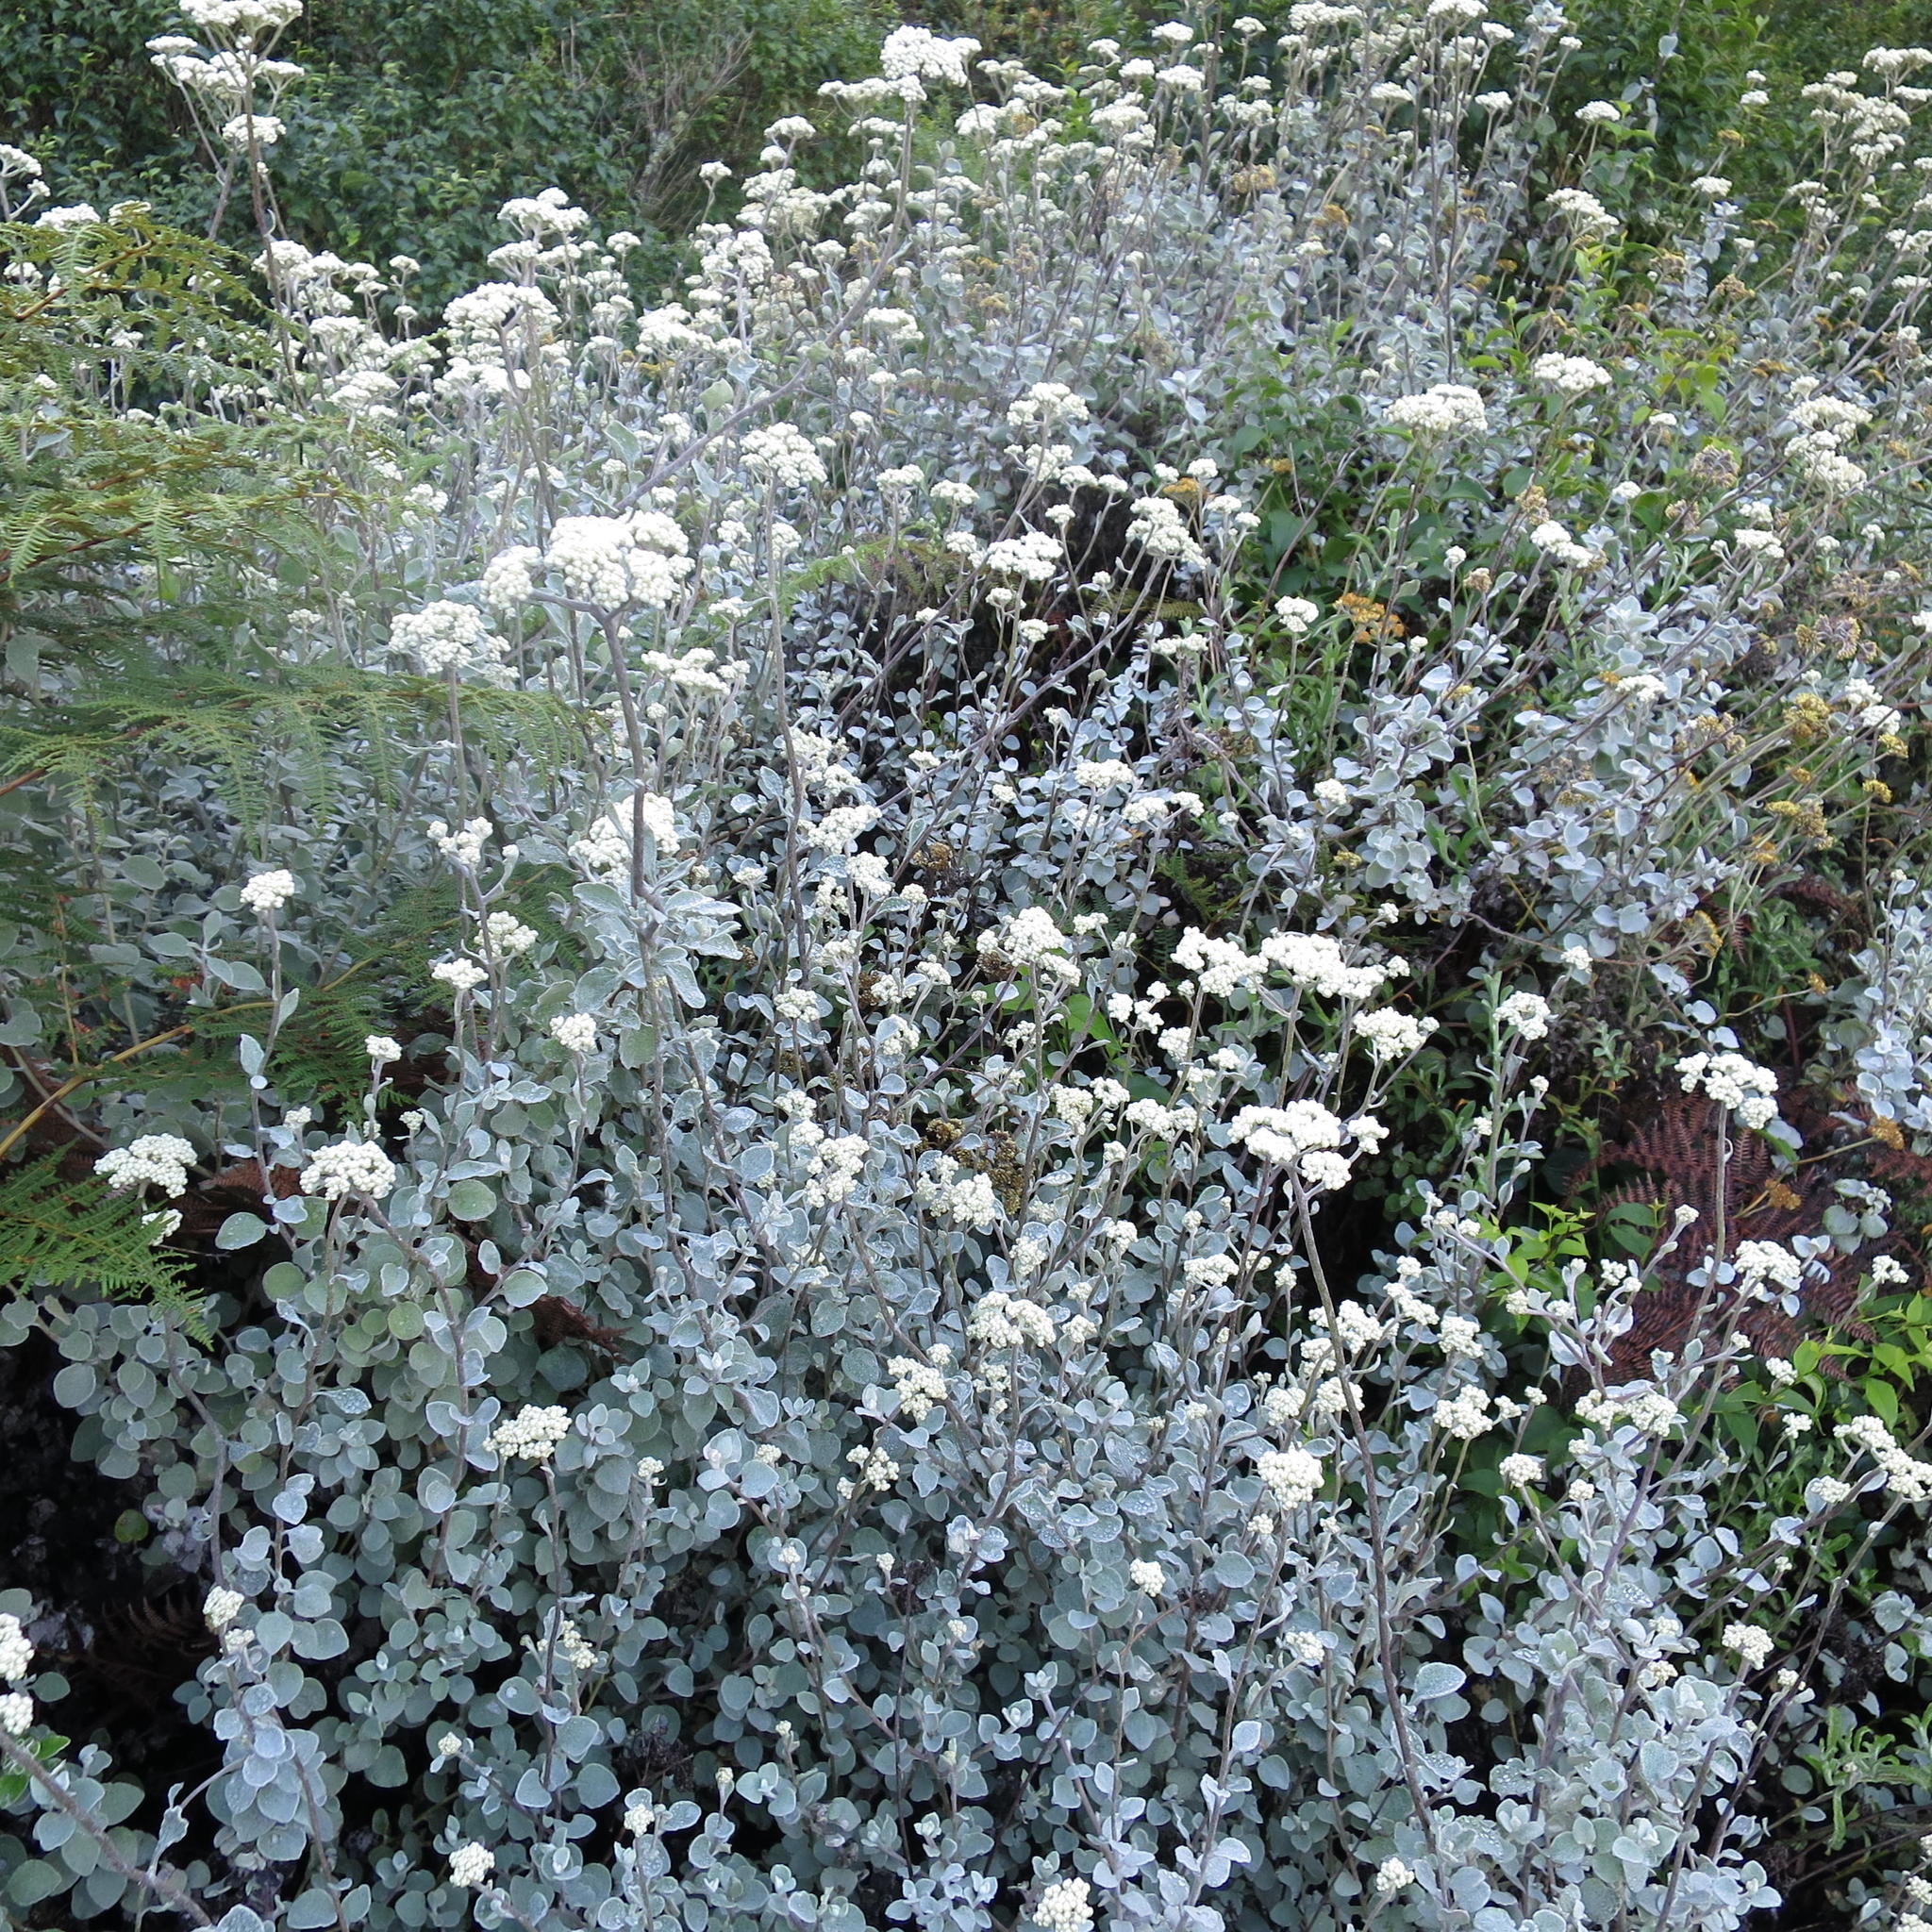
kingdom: Plantae
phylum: Tracheophyta
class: Magnoliopsida
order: Asterales
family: Asteraceae
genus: Helichrysum
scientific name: Helichrysum petiolare
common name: Licorice-plant
